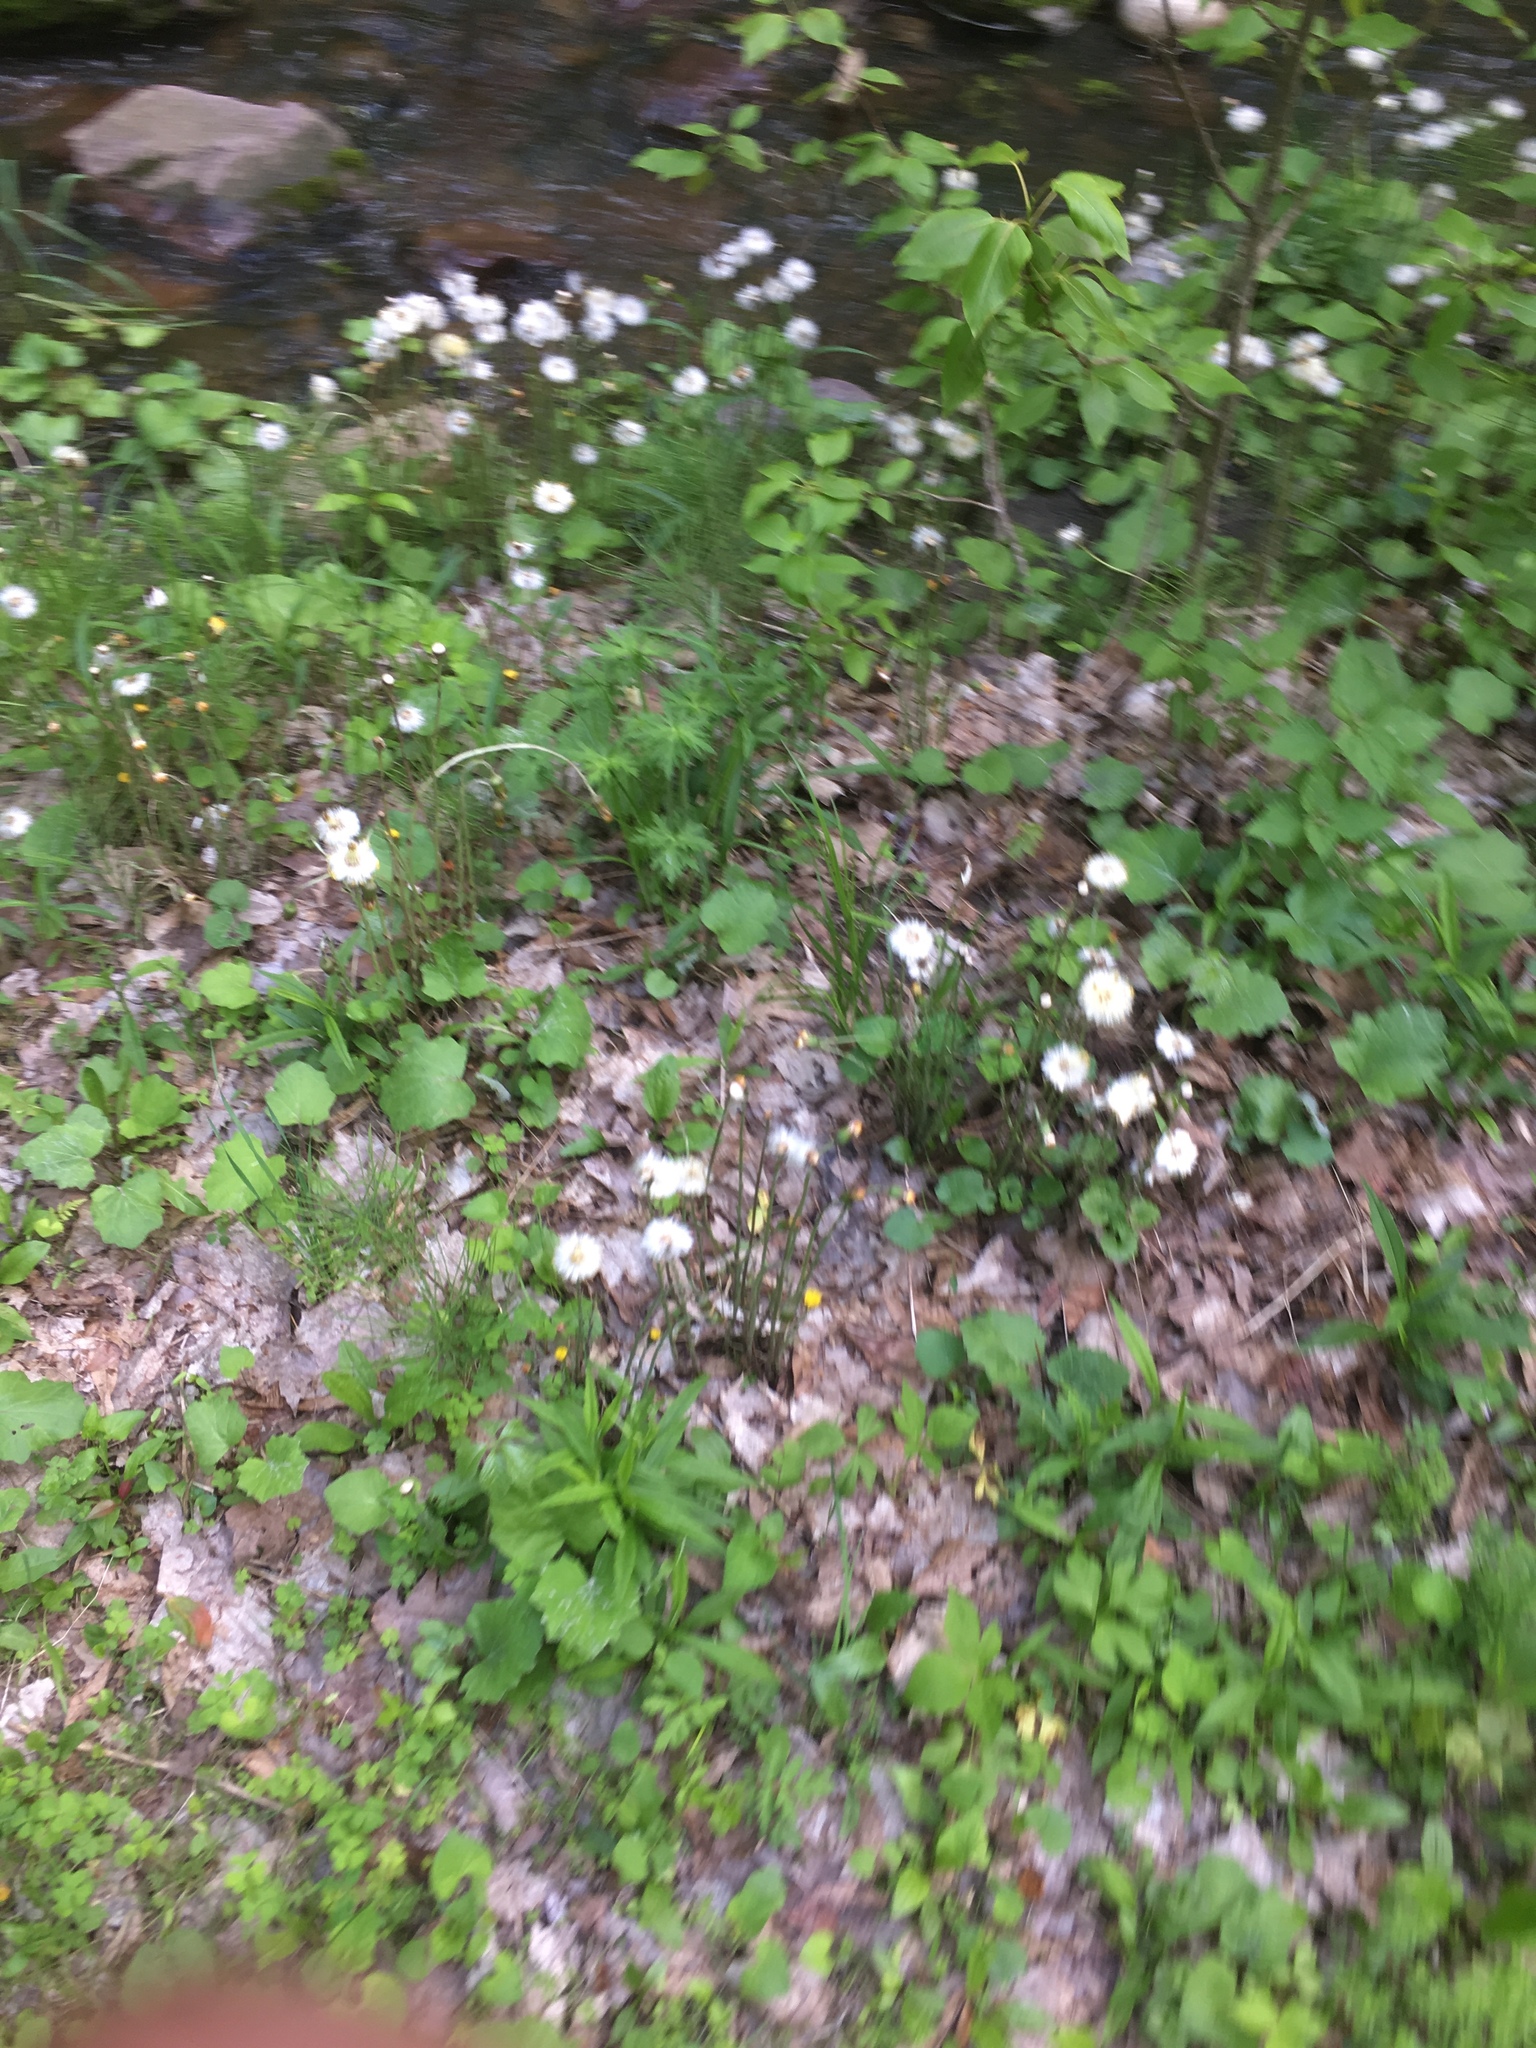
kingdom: Plantae
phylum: Tracheophyta
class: Magnoliopsida
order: Asterales
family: Asteraceae
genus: Tussilago
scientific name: Tussilago farfara
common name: Coltsfoot
